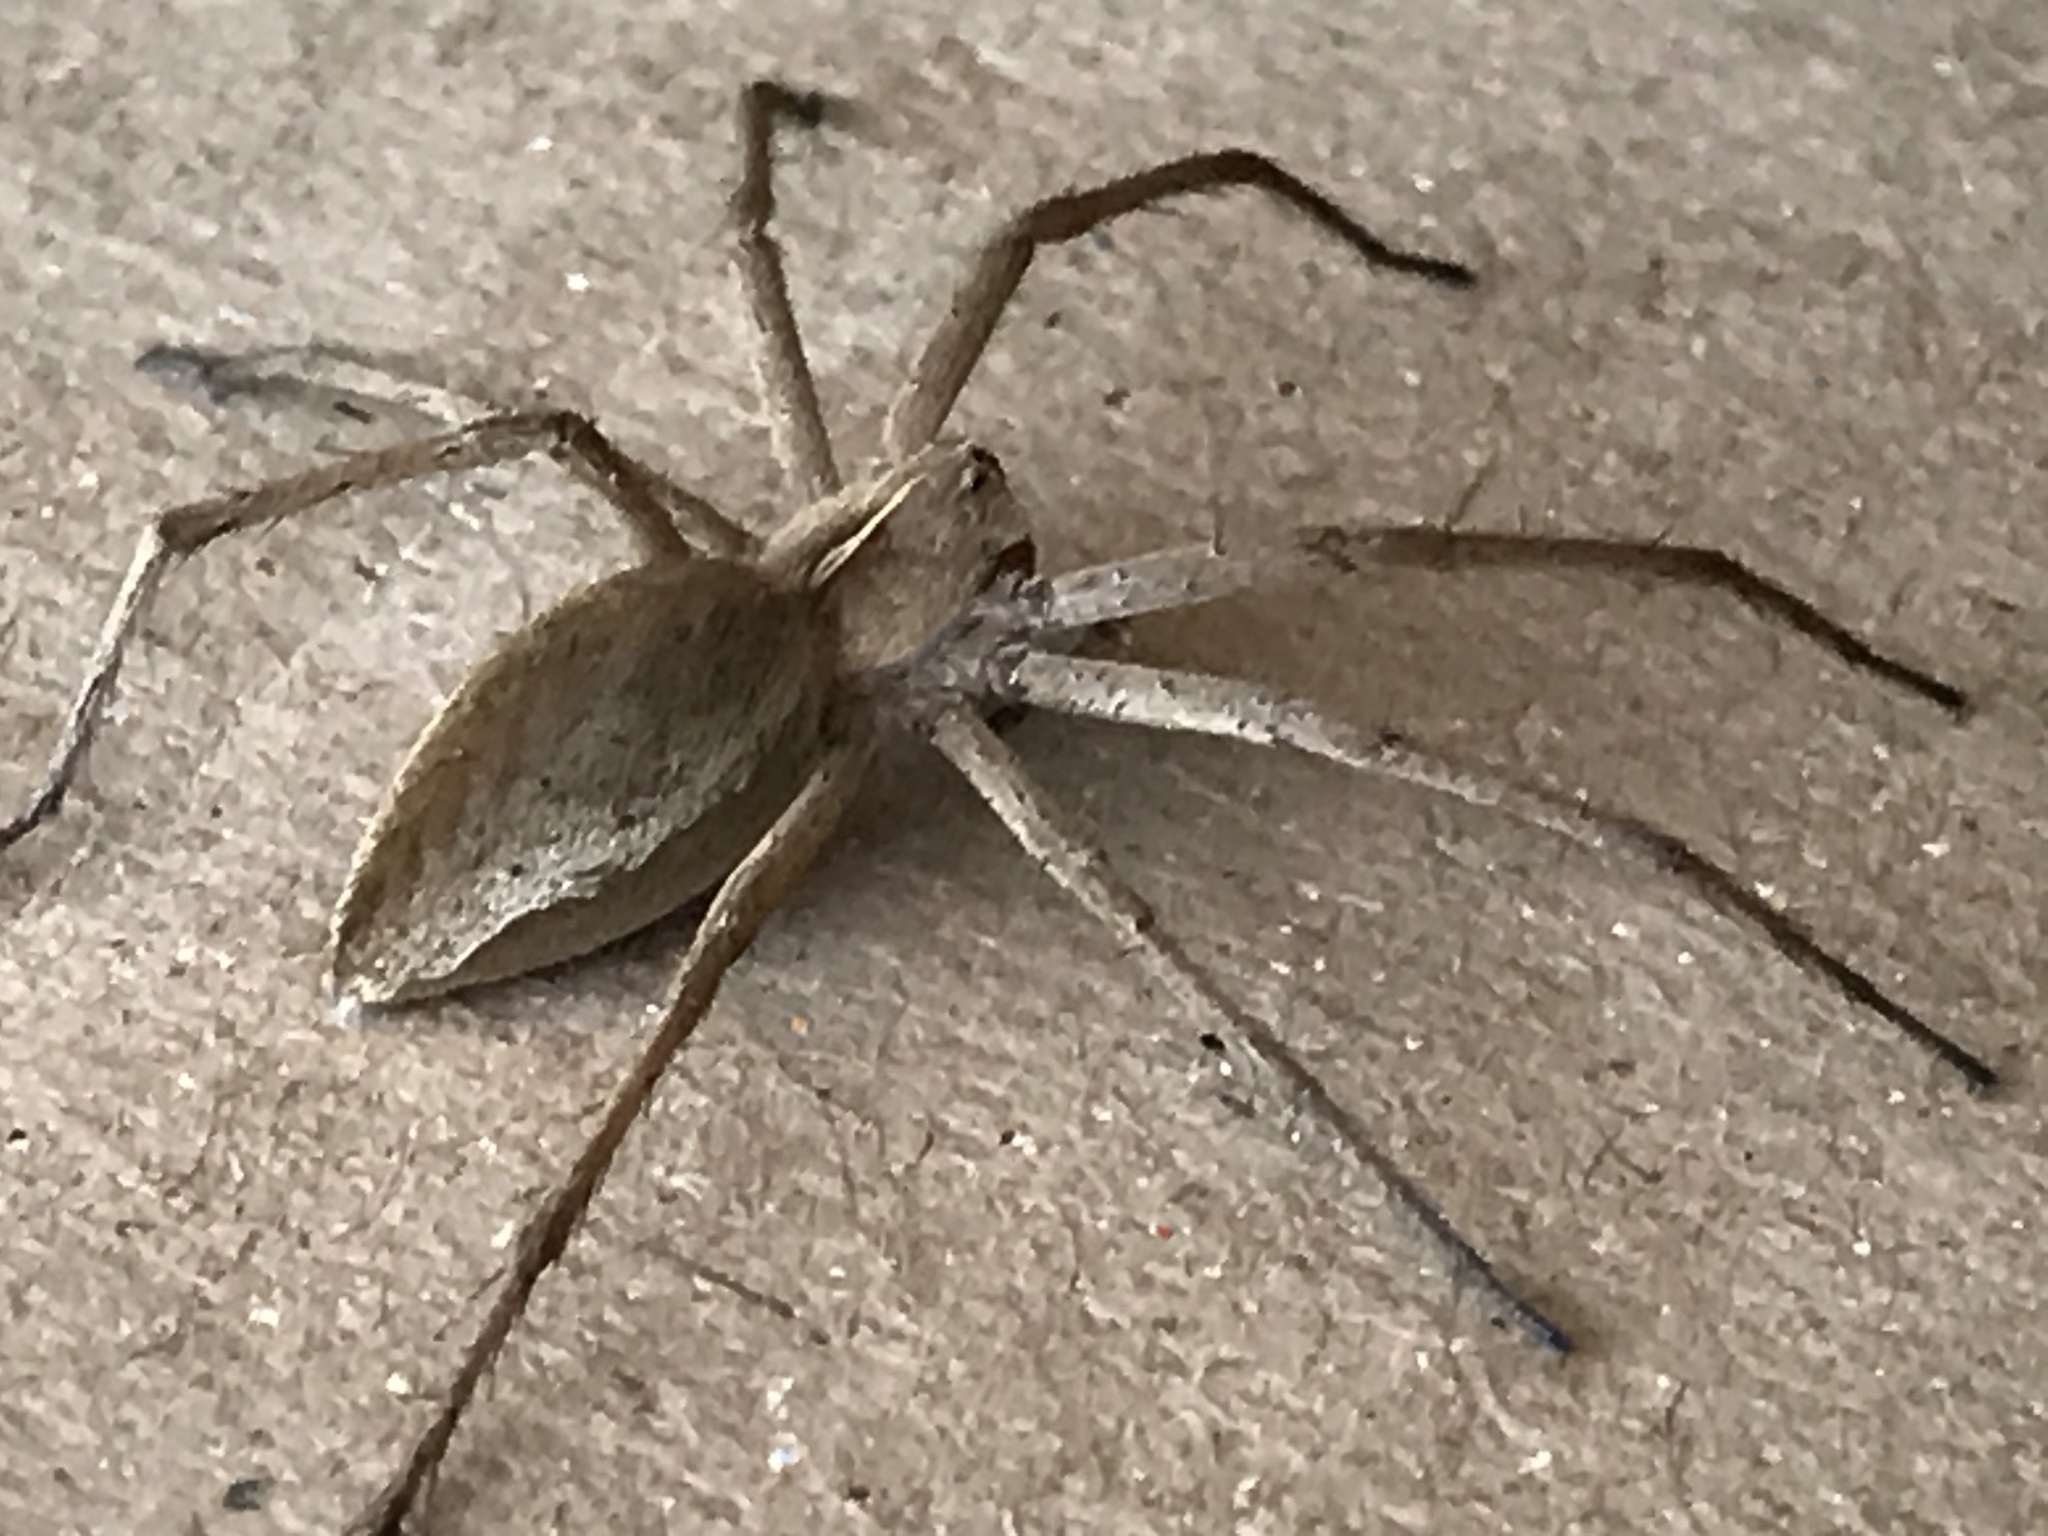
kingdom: Animalia
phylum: Arthropoda
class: Arachnida
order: Araneae
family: Pisauridae
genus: Pisaura
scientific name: Pisaura mirabilis
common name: Tent spider
